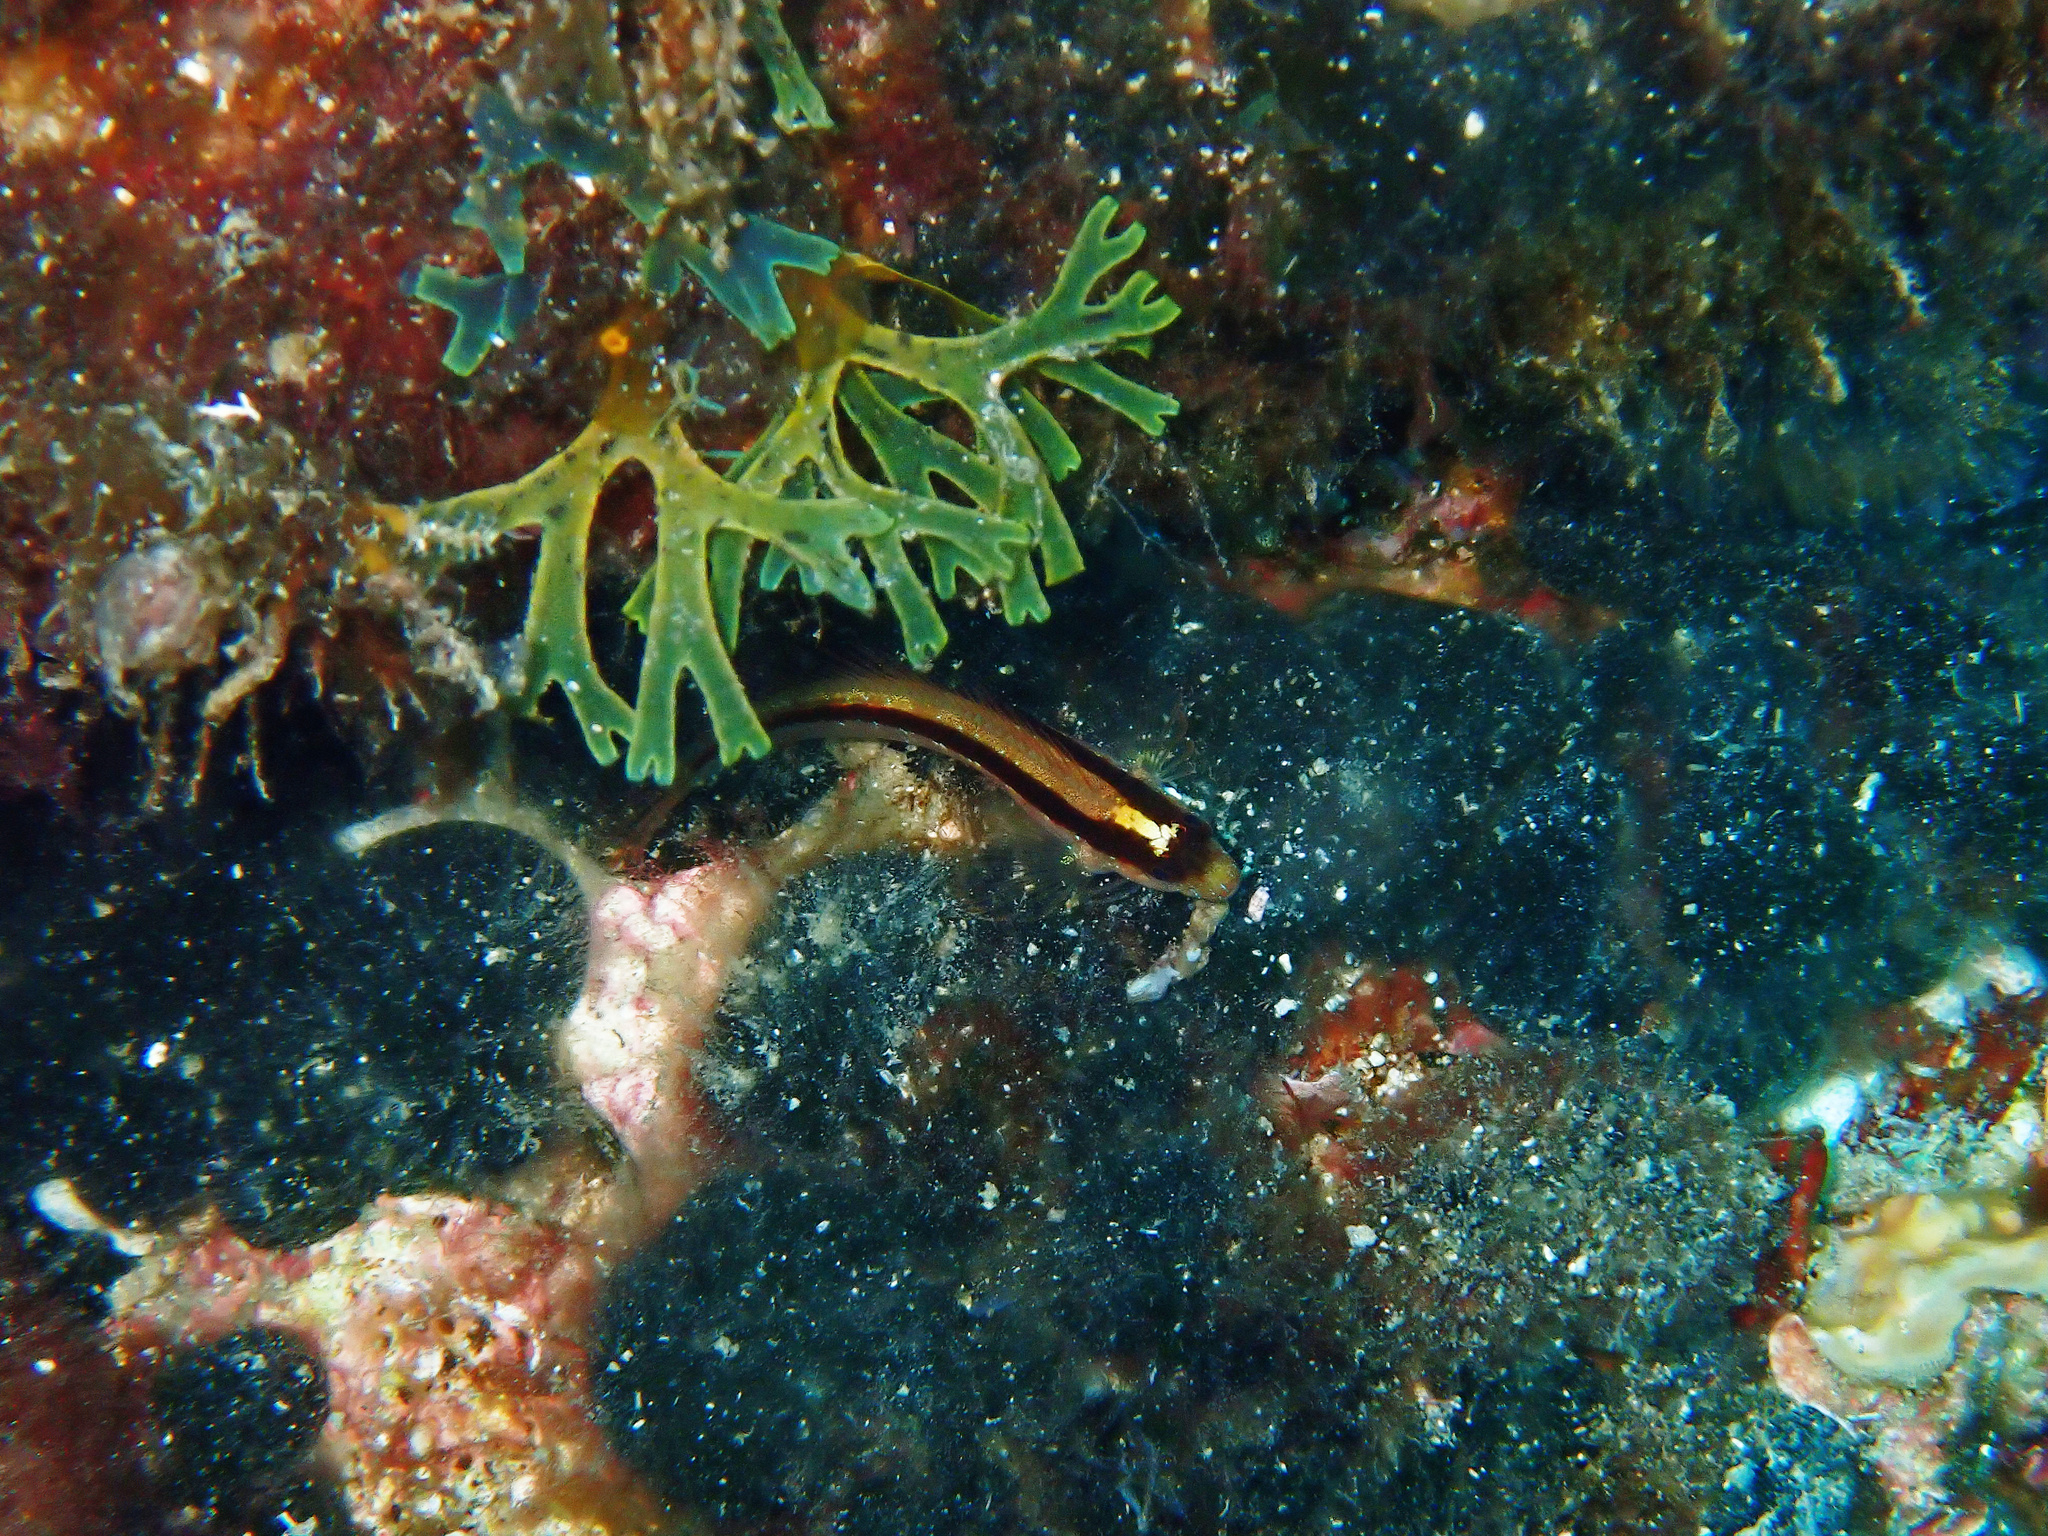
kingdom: Animalia
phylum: Chordata
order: Perciformes
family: Blenniidae
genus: Parablennius
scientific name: Parablennius rouxi
